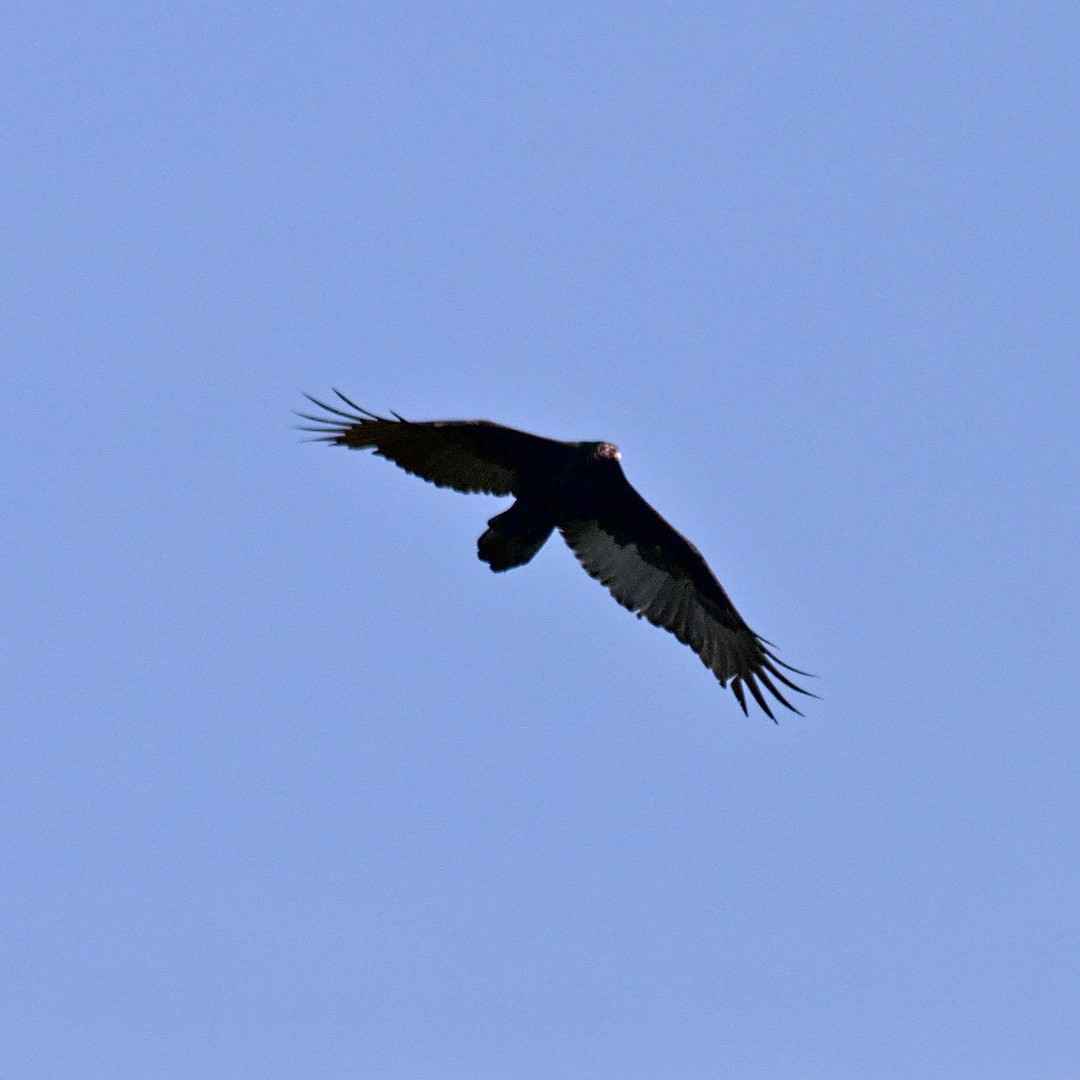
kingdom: Animalia
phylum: Chordata
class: Aves
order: Accipitriformes
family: Cathartidae
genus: Cathartes
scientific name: Cathartes aura
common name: Turkey vulture
